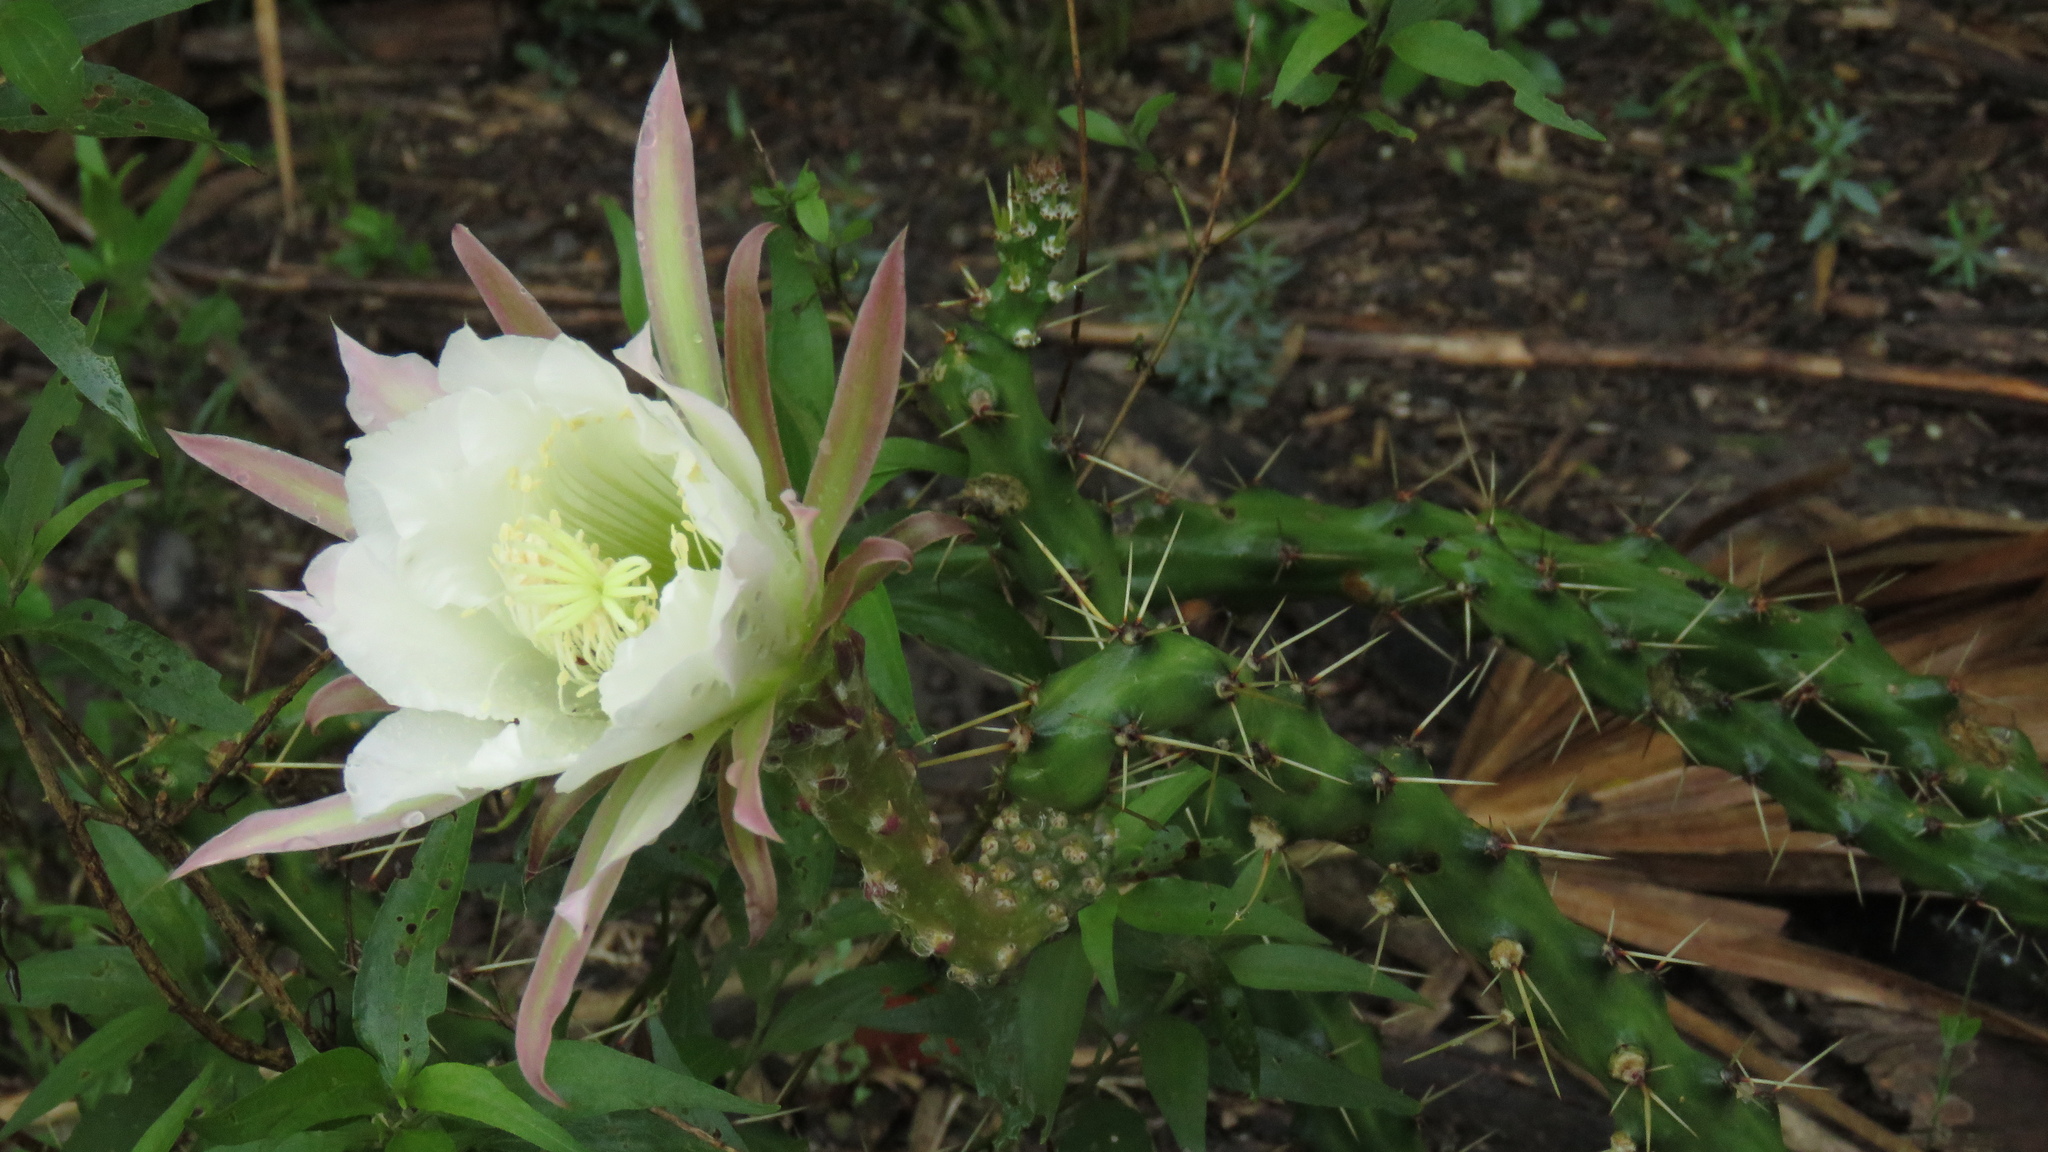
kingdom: Plantae
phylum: Tracheophyta
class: Magnoliopsida
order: Caryophyllales
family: Cactaceae
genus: Harrisia
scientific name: Harrisia martinii
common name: Moon cactus
